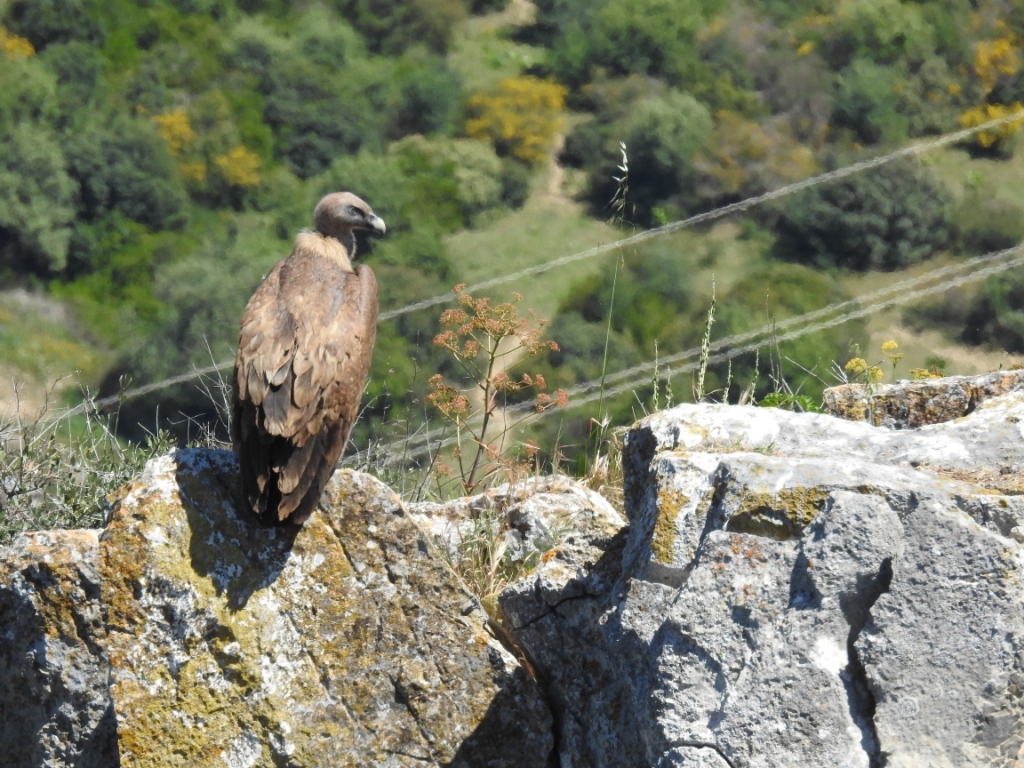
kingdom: Animalia
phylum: Chordata
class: Aves
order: Accipitriformes
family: Accipitridae
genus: Gyps
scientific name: Gyps fulvus
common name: Griffon vulture
